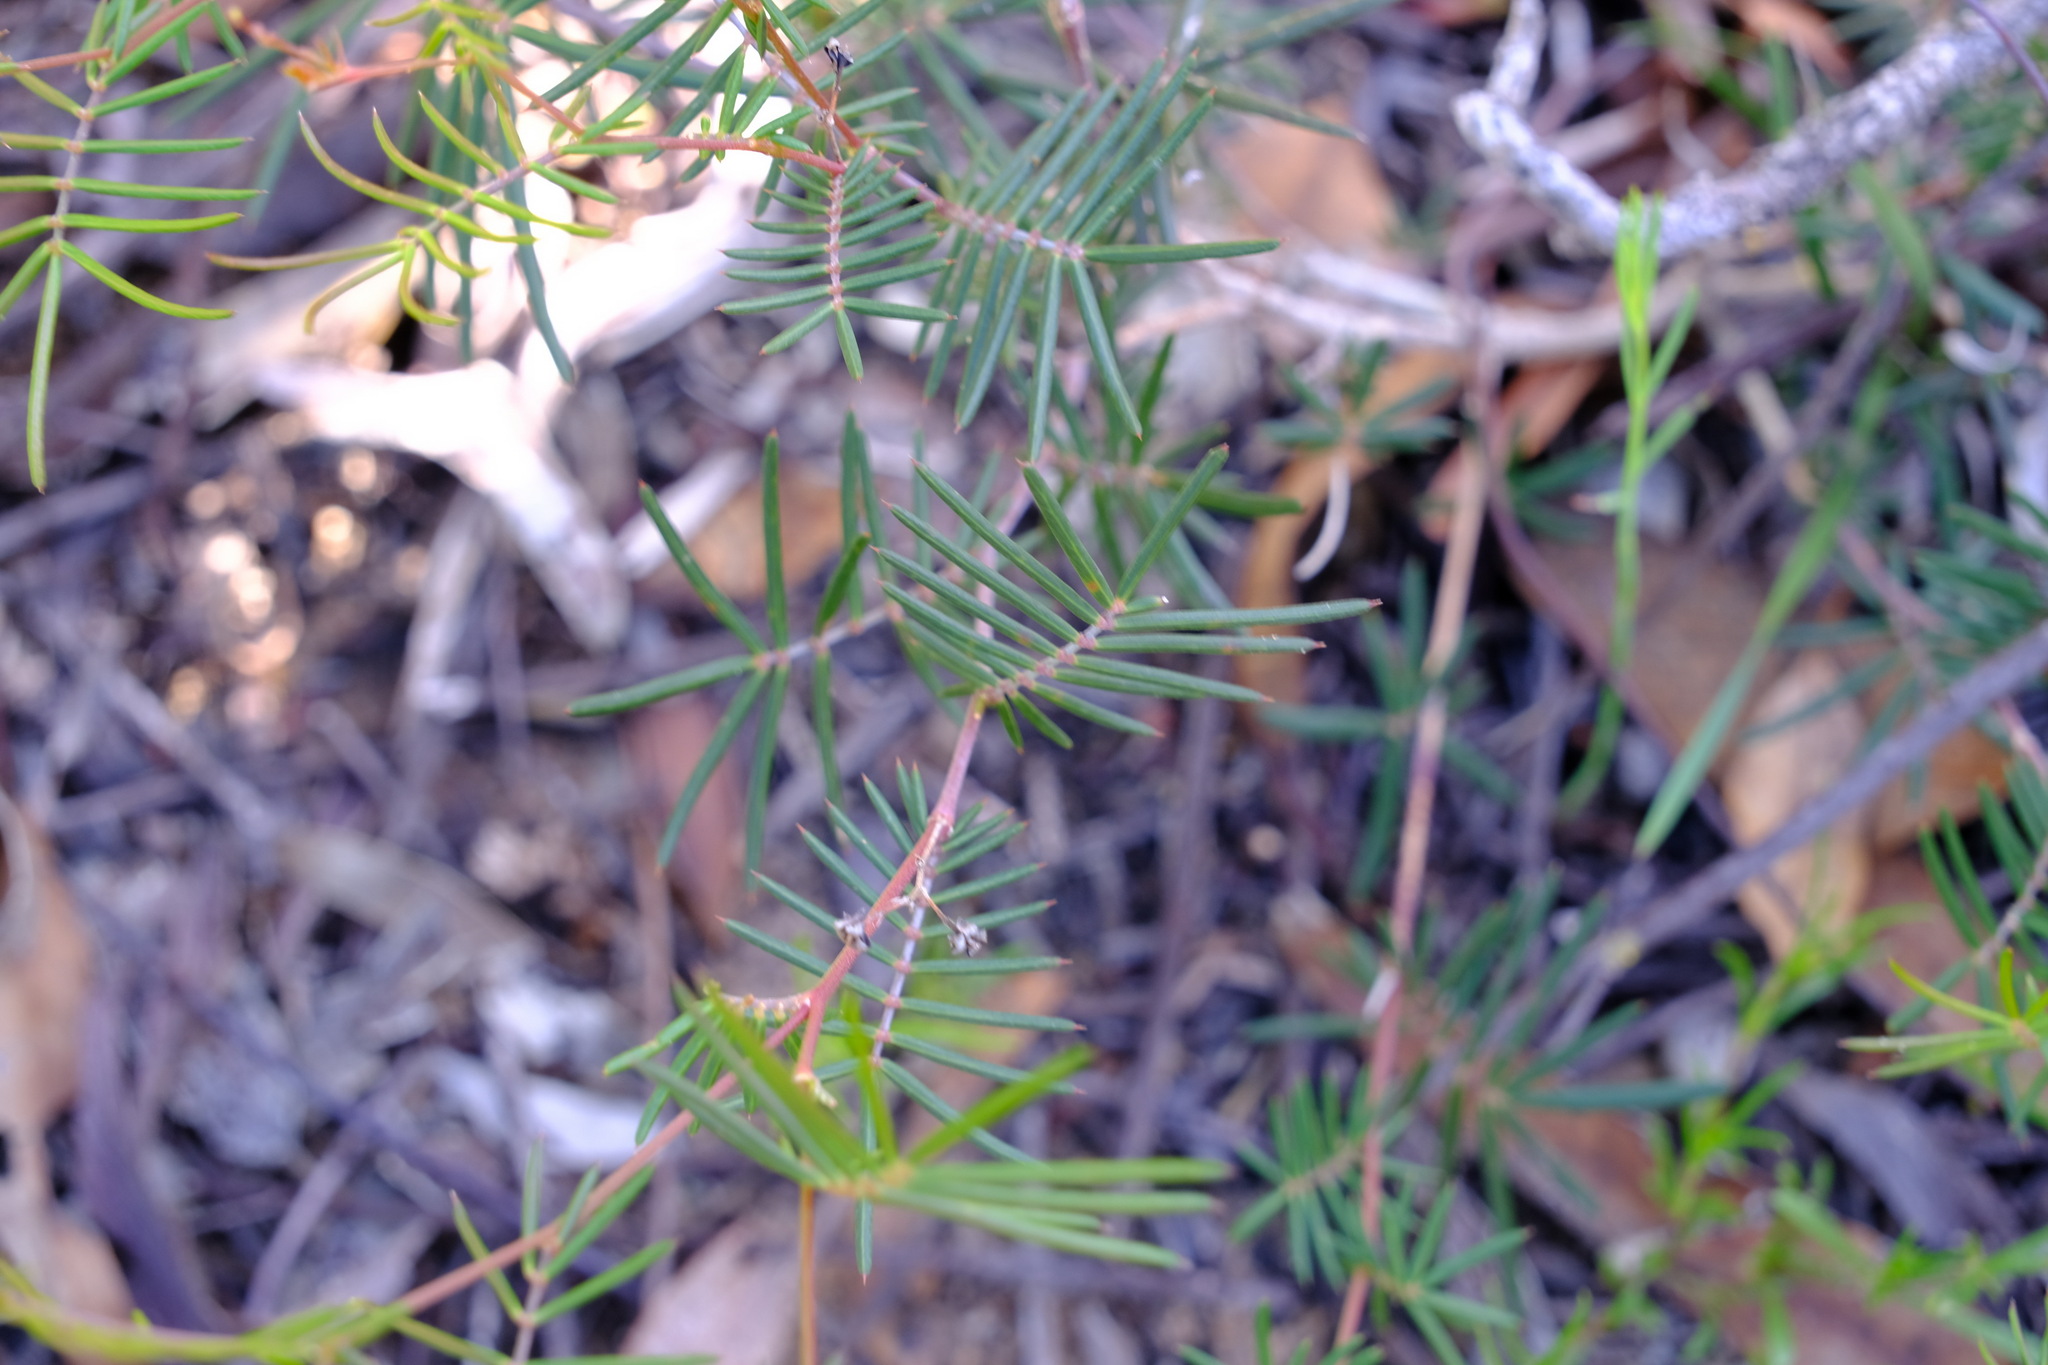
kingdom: Plantae
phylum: Tracheophyta
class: Magnoliopsida
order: Fabales
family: Fabaceae
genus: Gompholobium
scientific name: Gompholobium pungens
